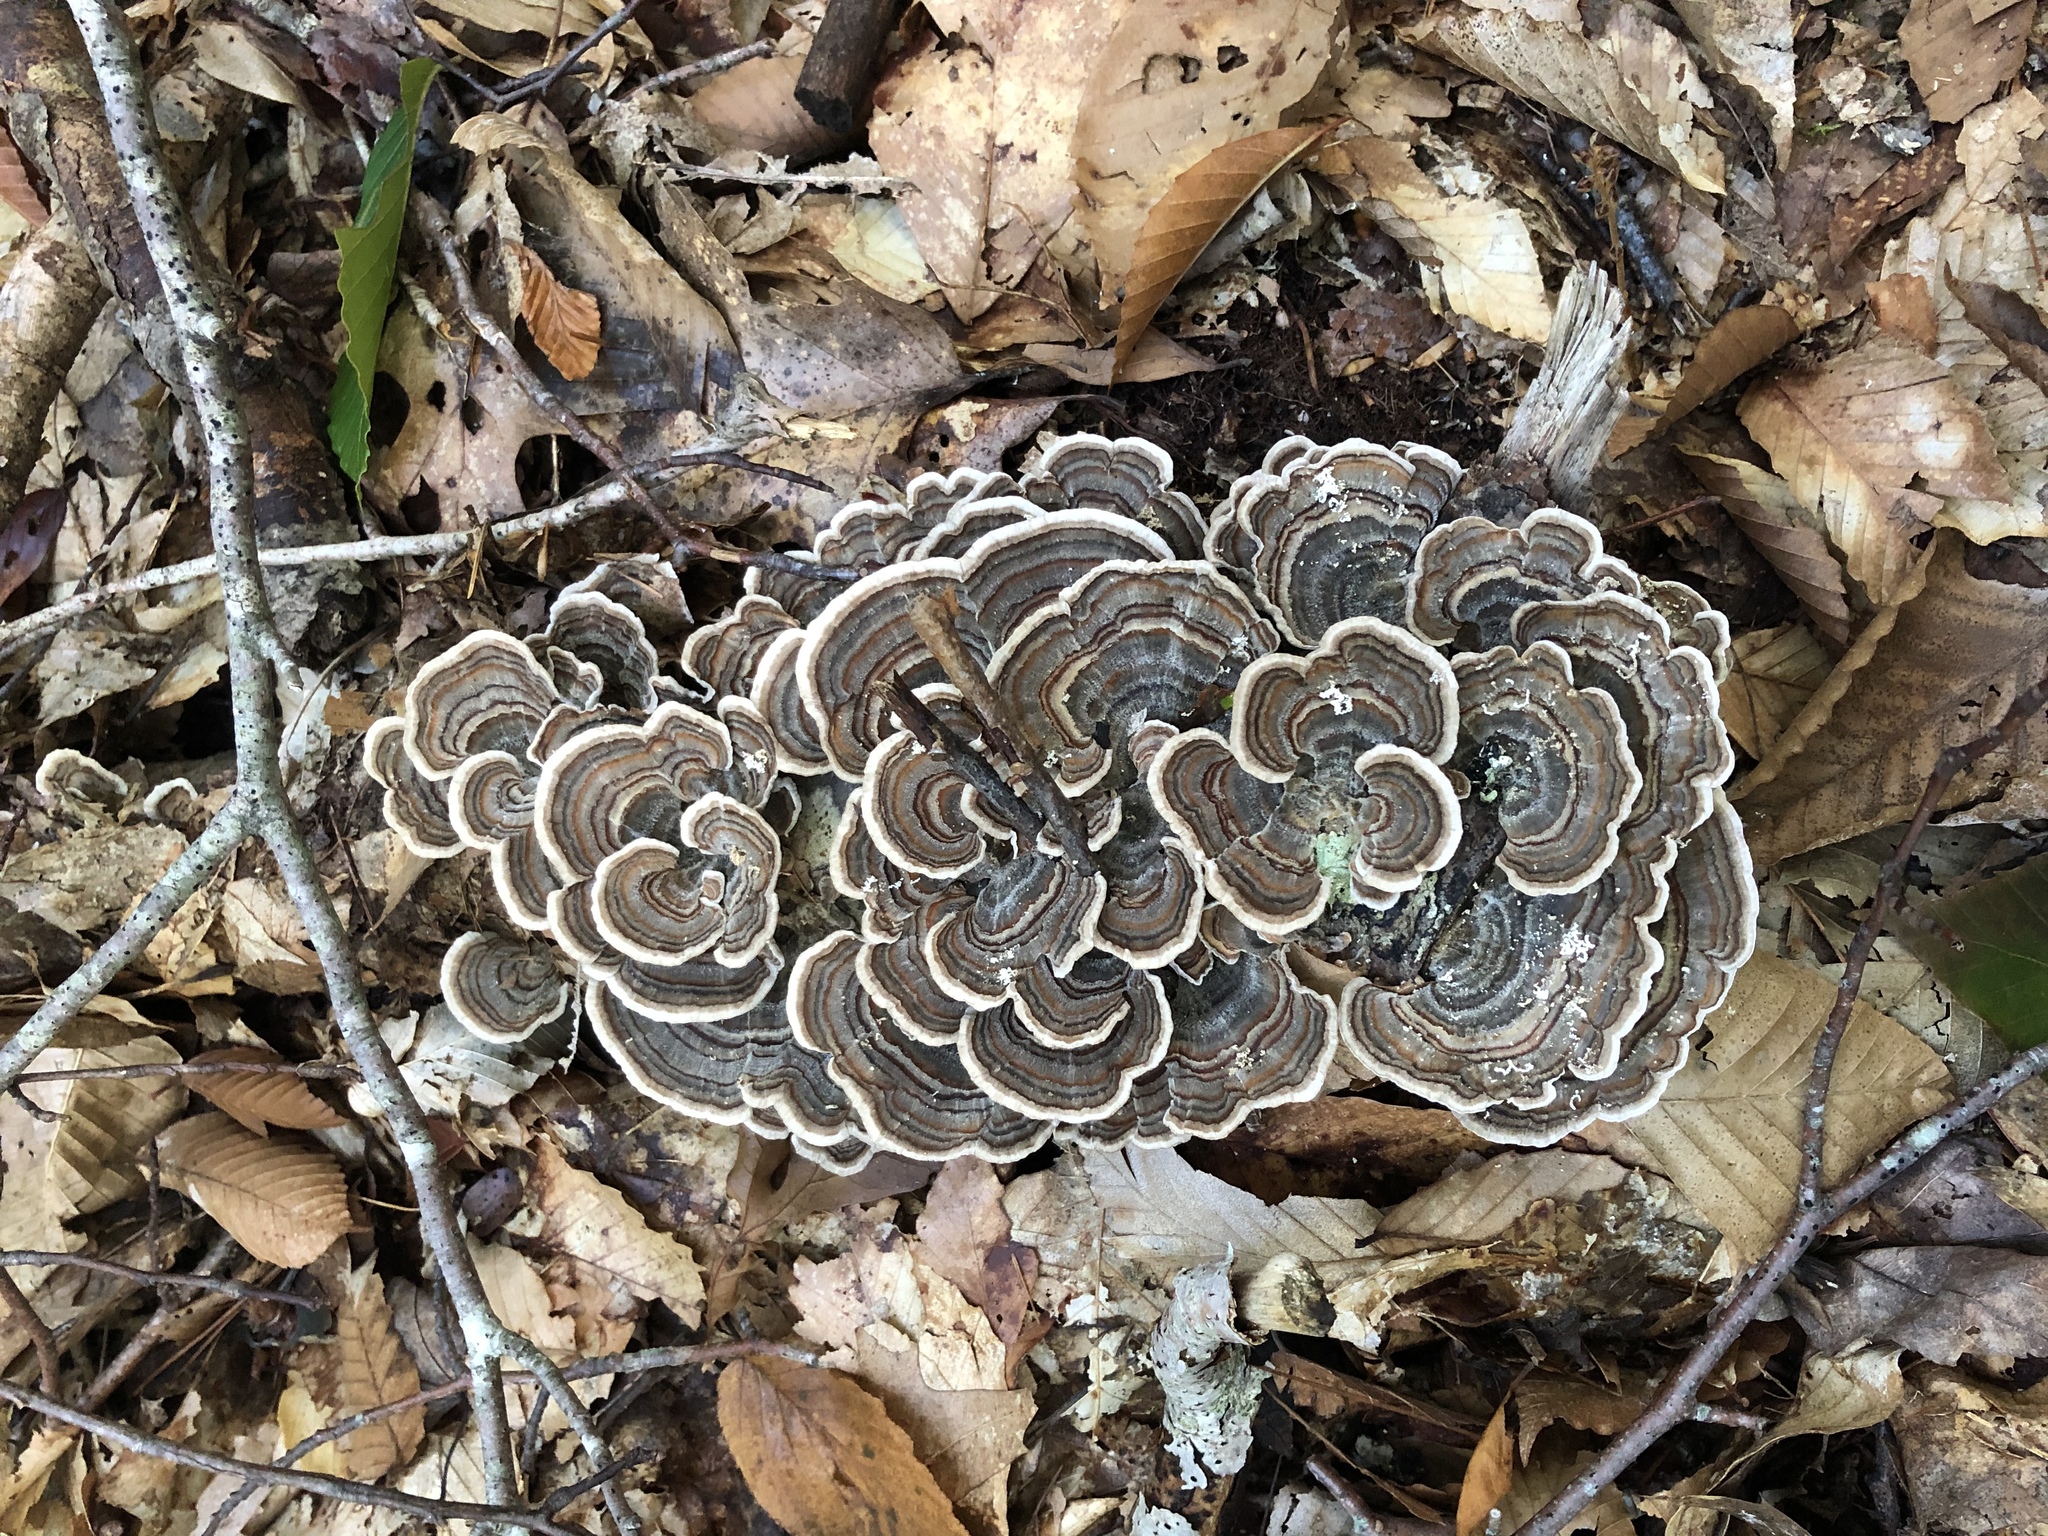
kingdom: Fungi
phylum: Basidiomycota
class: Agaricomycetes
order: Polyporales
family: Polyporaceae
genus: Trametes
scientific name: Trametes versicolor
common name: Turkeytail
